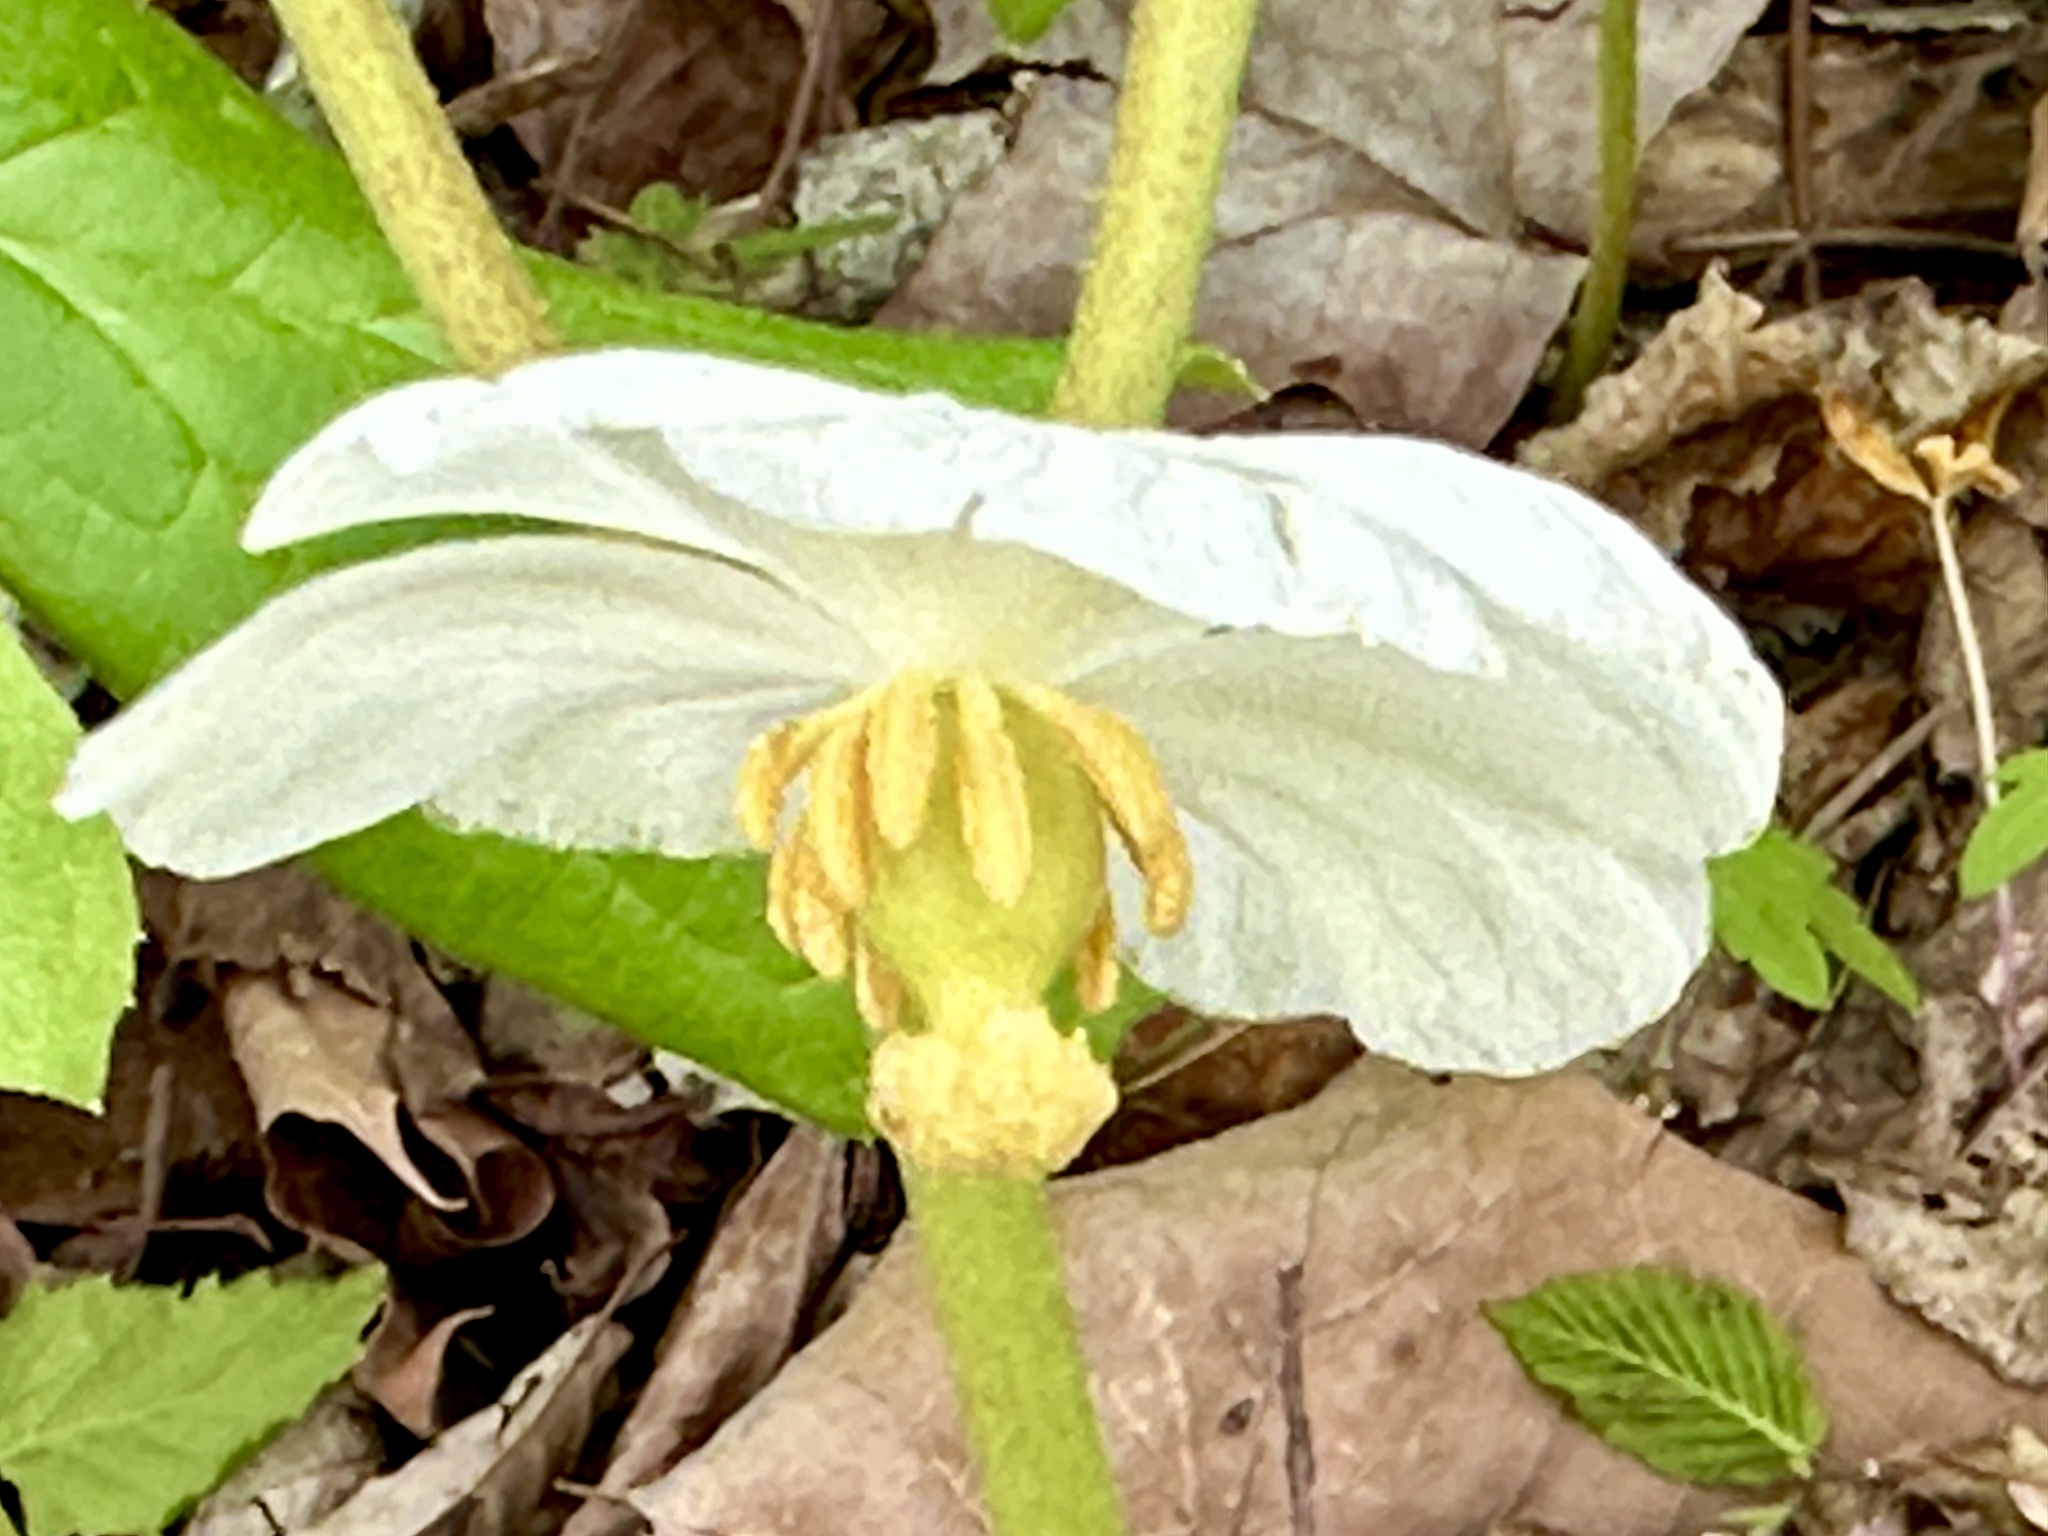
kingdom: Plantae
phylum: Tracheophyta
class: Magnoliopsida
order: Ranunculales
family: Berberidaceae
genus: Podophyllum
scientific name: Podophyllum peltatum
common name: Wild mandrake
